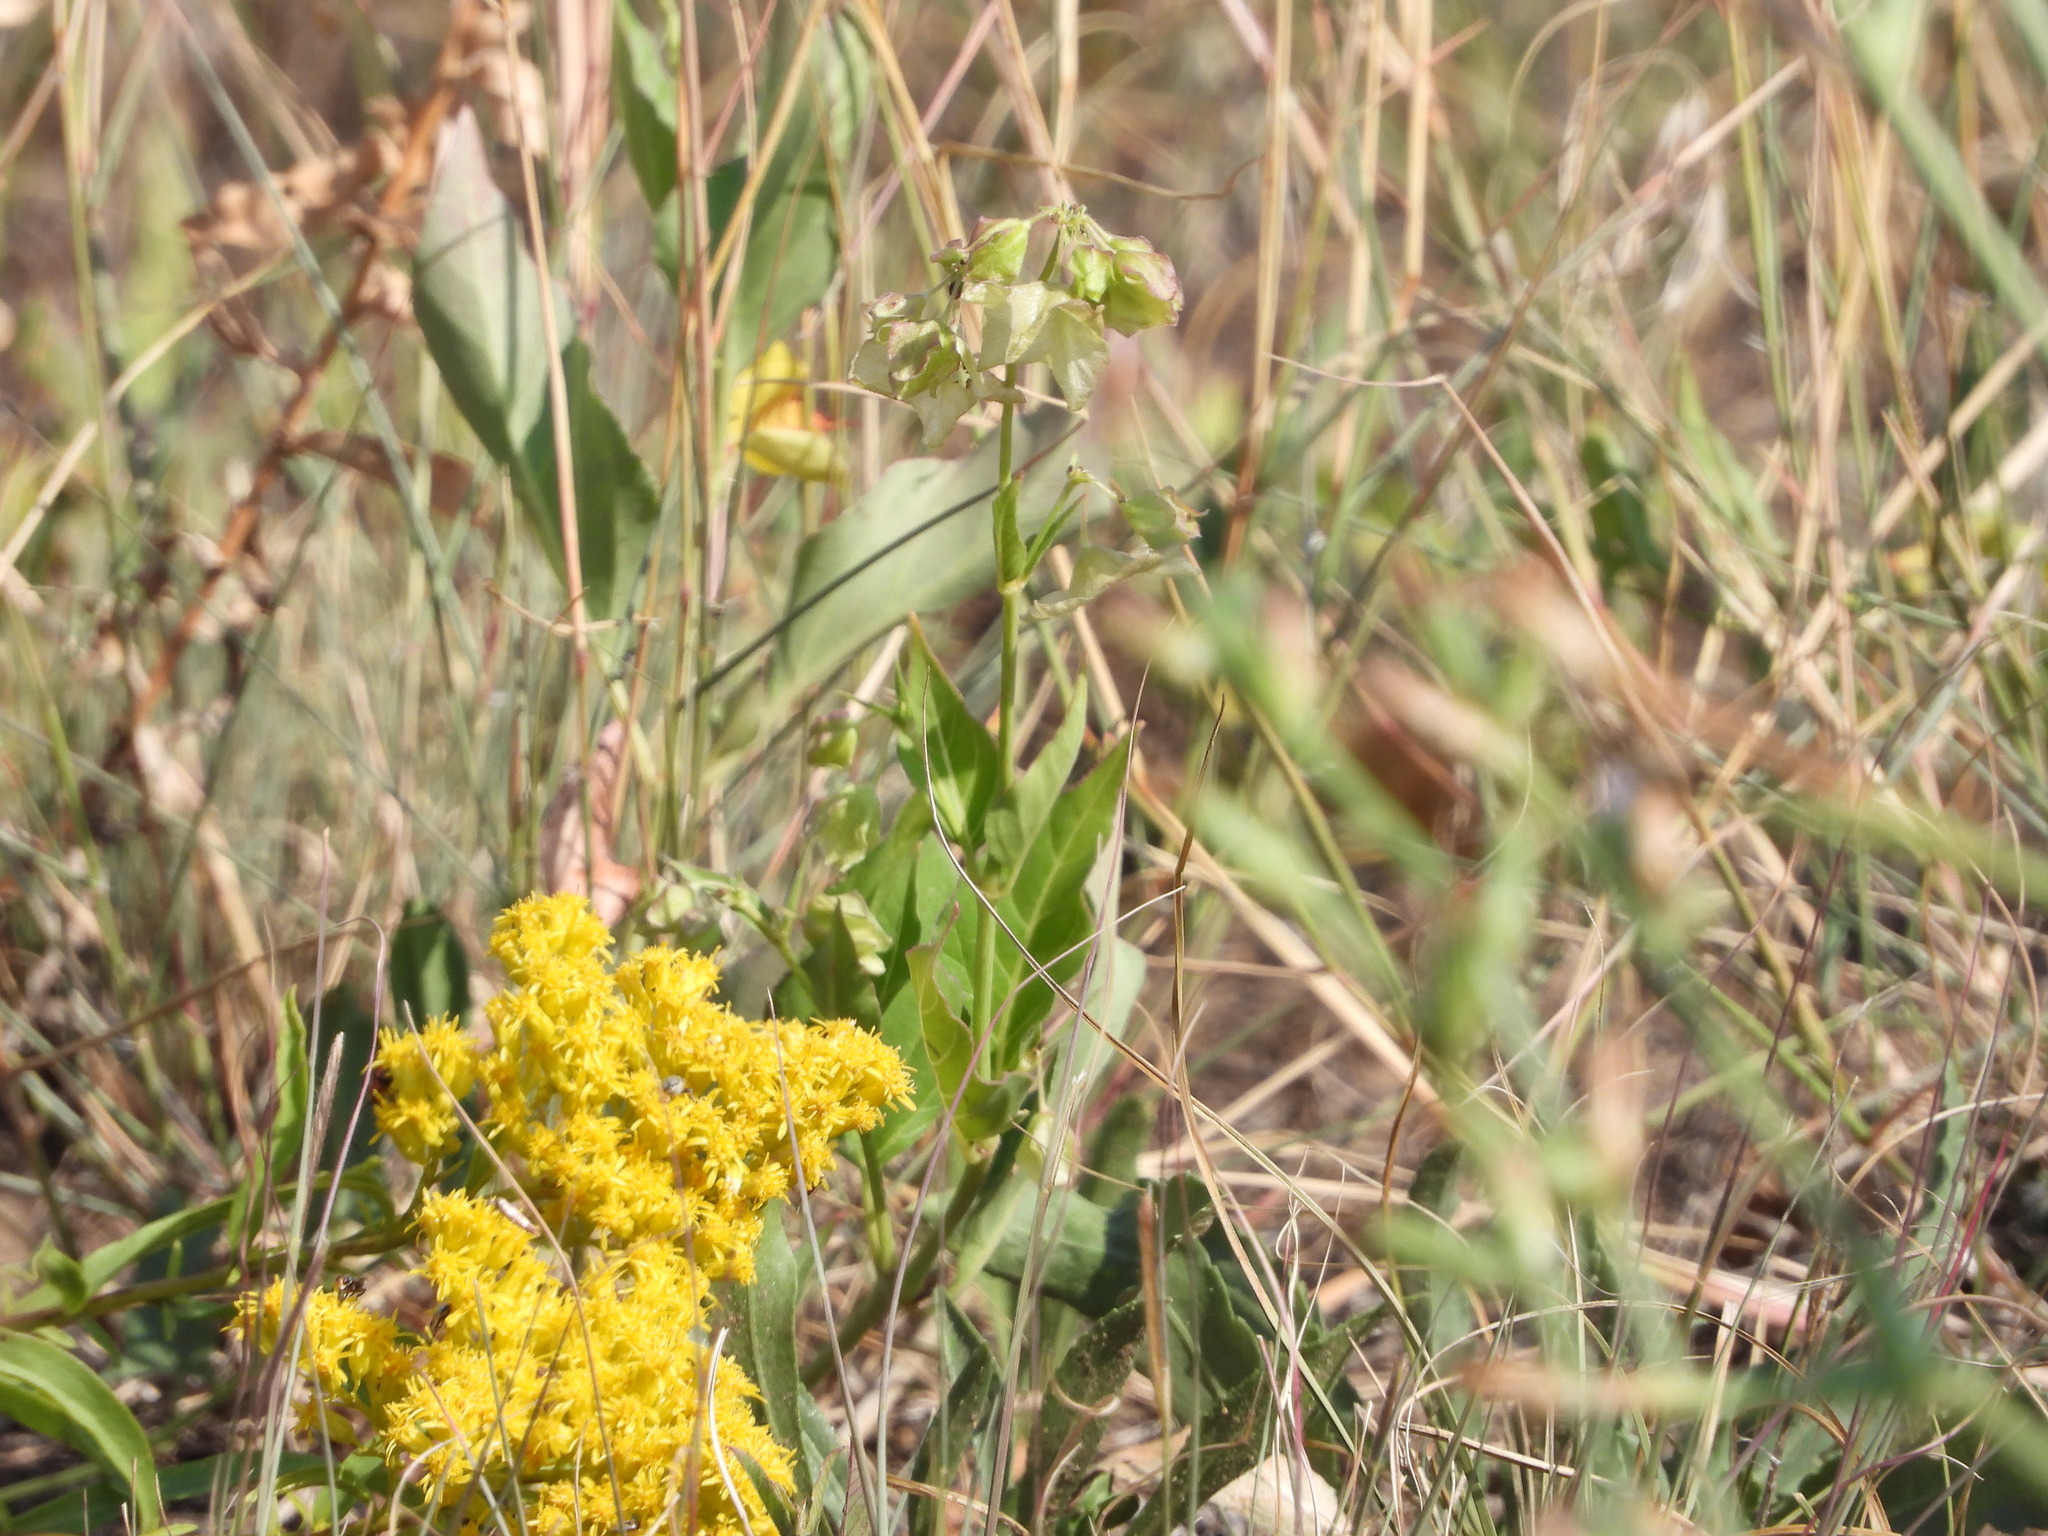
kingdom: Plantae
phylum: Tracheophyta
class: Magnoliopsida
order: Caryophyllales
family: Nyctaginaceae
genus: Mirabilis
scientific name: Mirabilis albida
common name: Hairy four-o'clock
